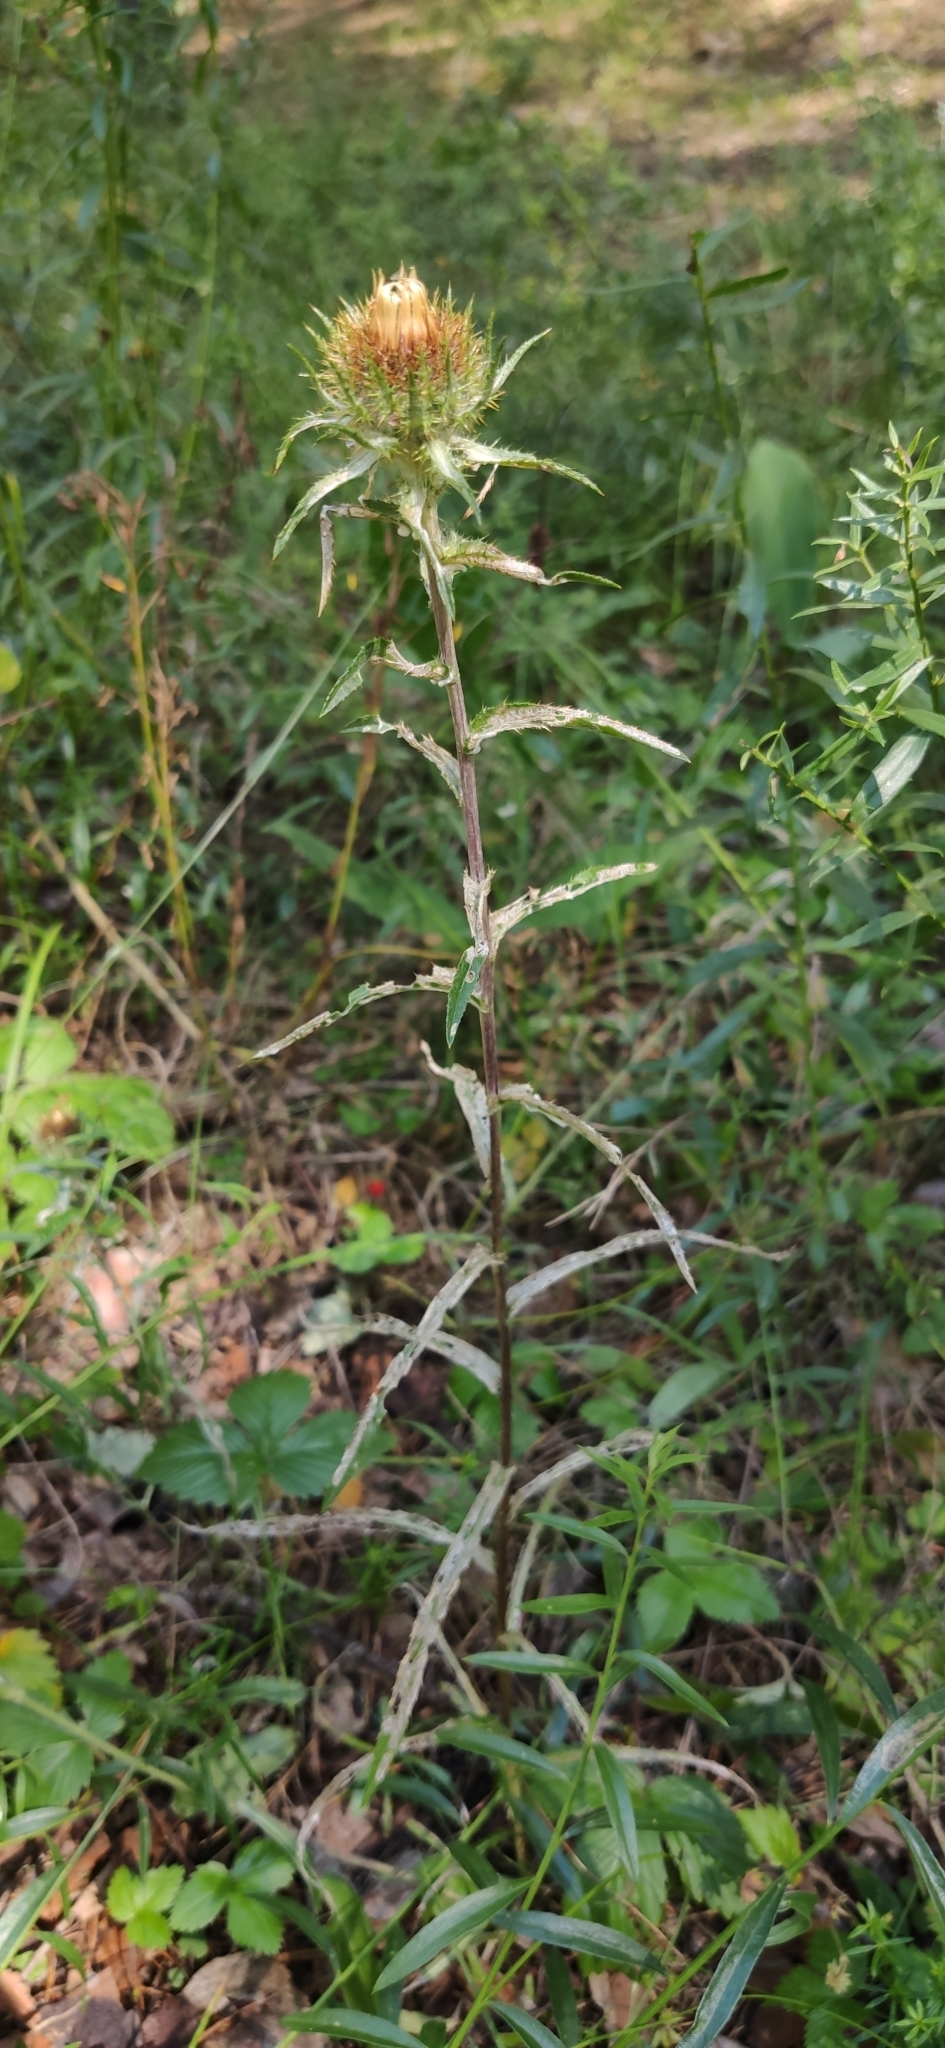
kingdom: Plantae
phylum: Tracheophyta
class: Magnoliopsida
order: Asterales
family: Asteraceae
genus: Carlina
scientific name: Carlina biebersteinii
